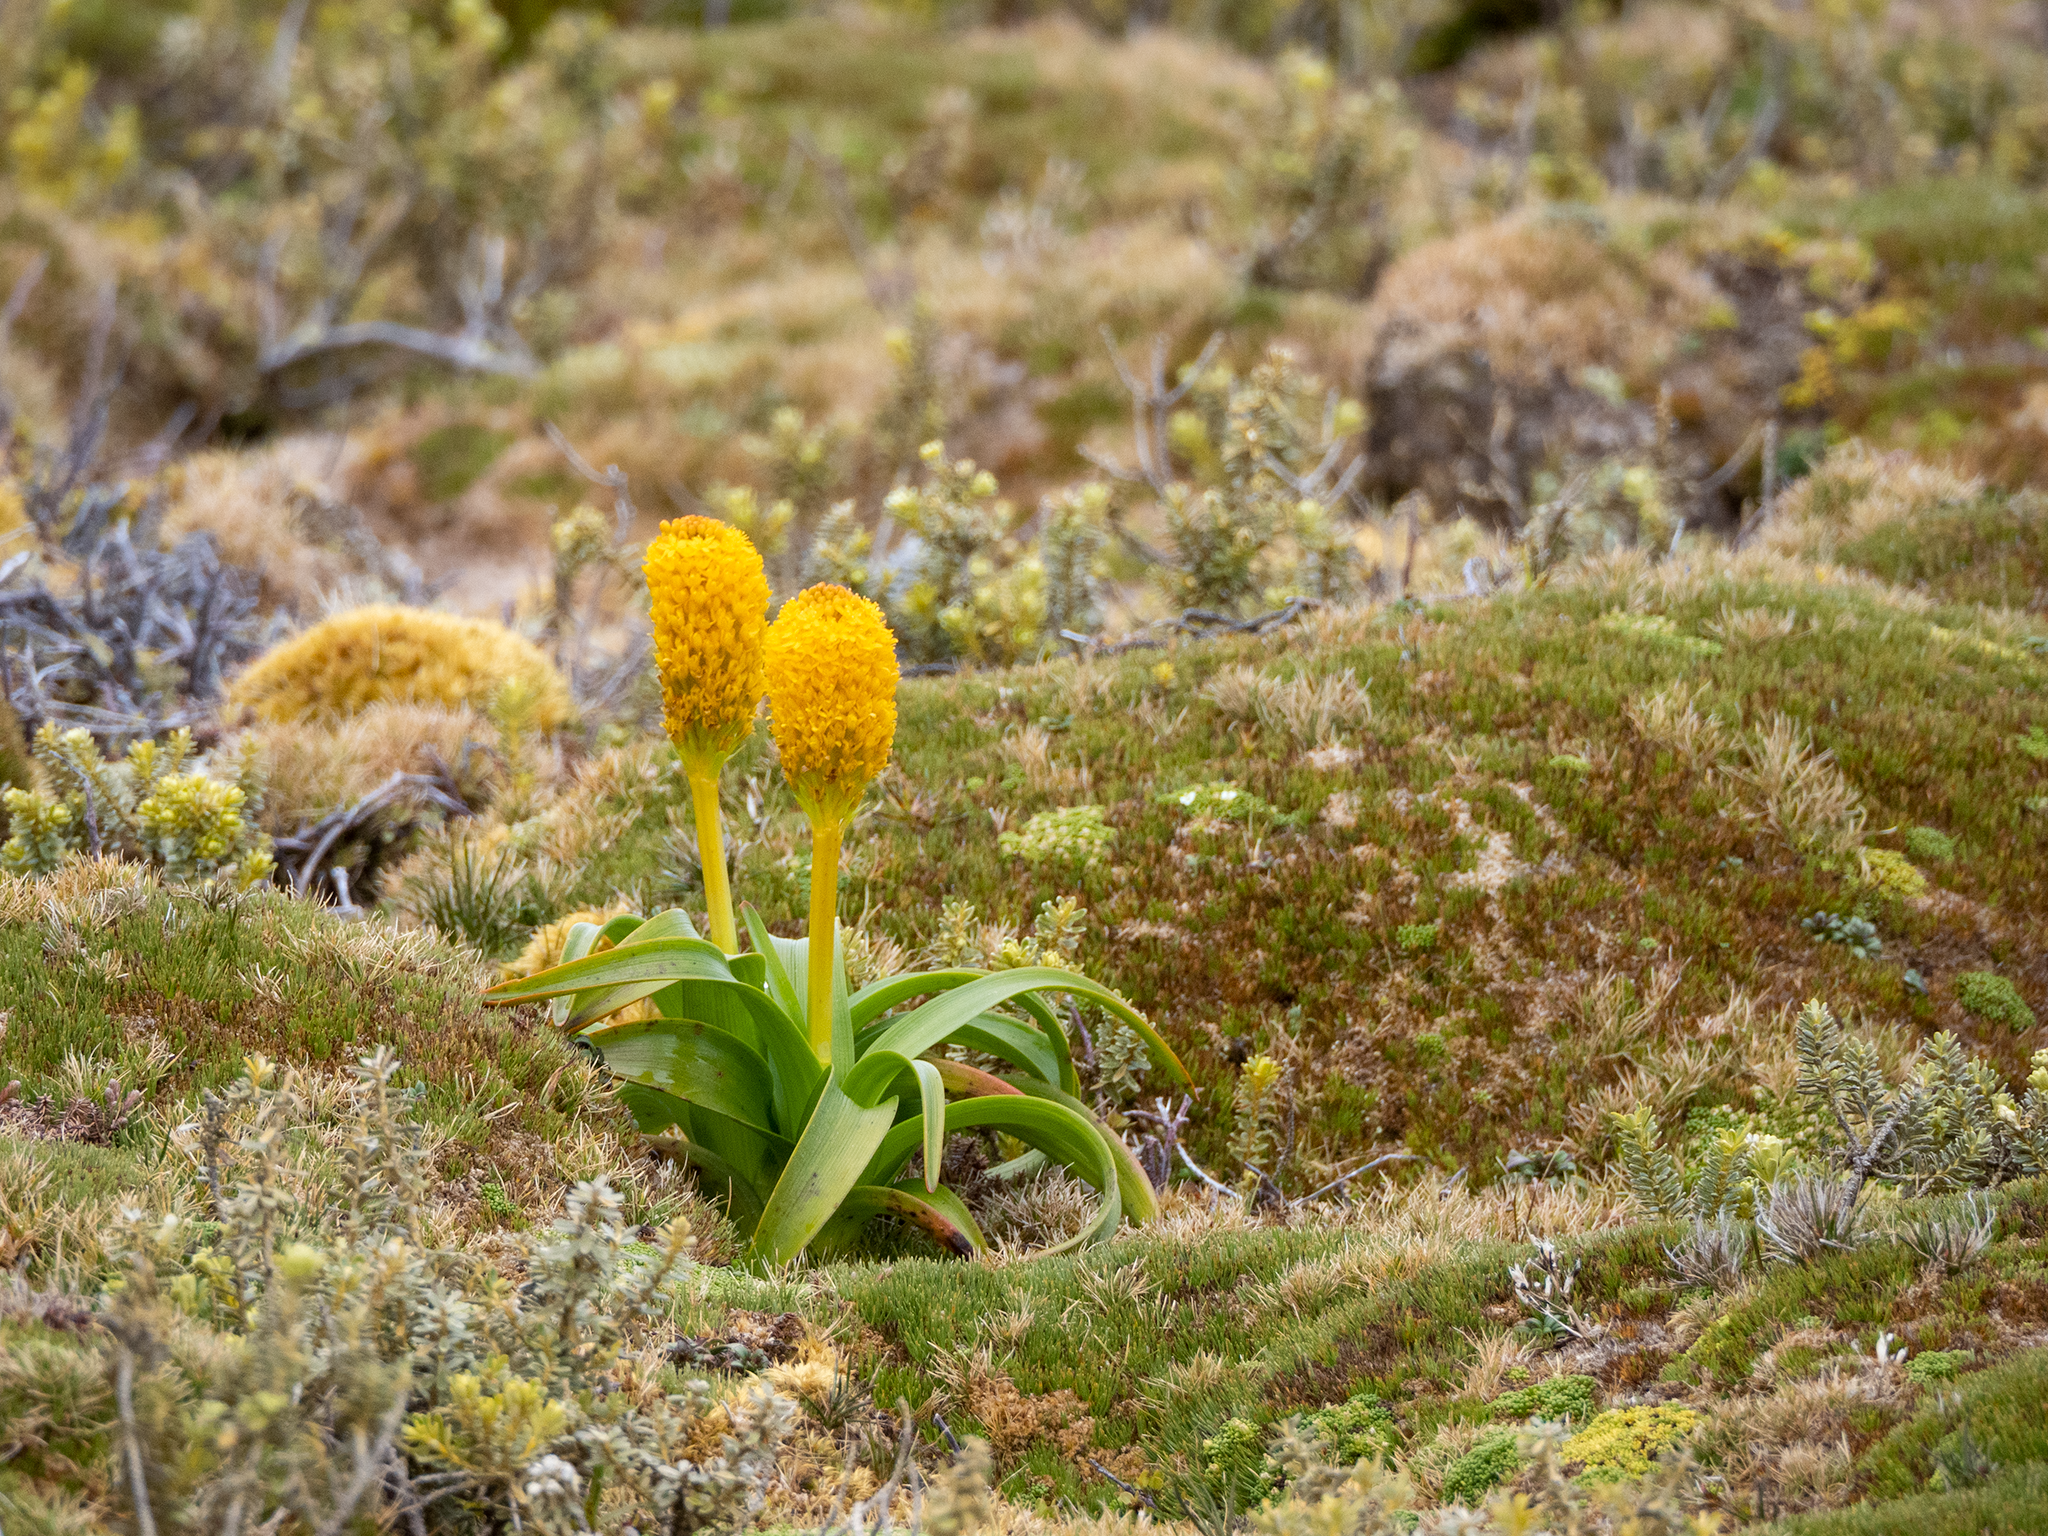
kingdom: Plantae
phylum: Tracheophyta
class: Liliopsida
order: Asparagales
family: Asphodelaceae
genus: Bulbinella
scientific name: Bulbinella rossii
